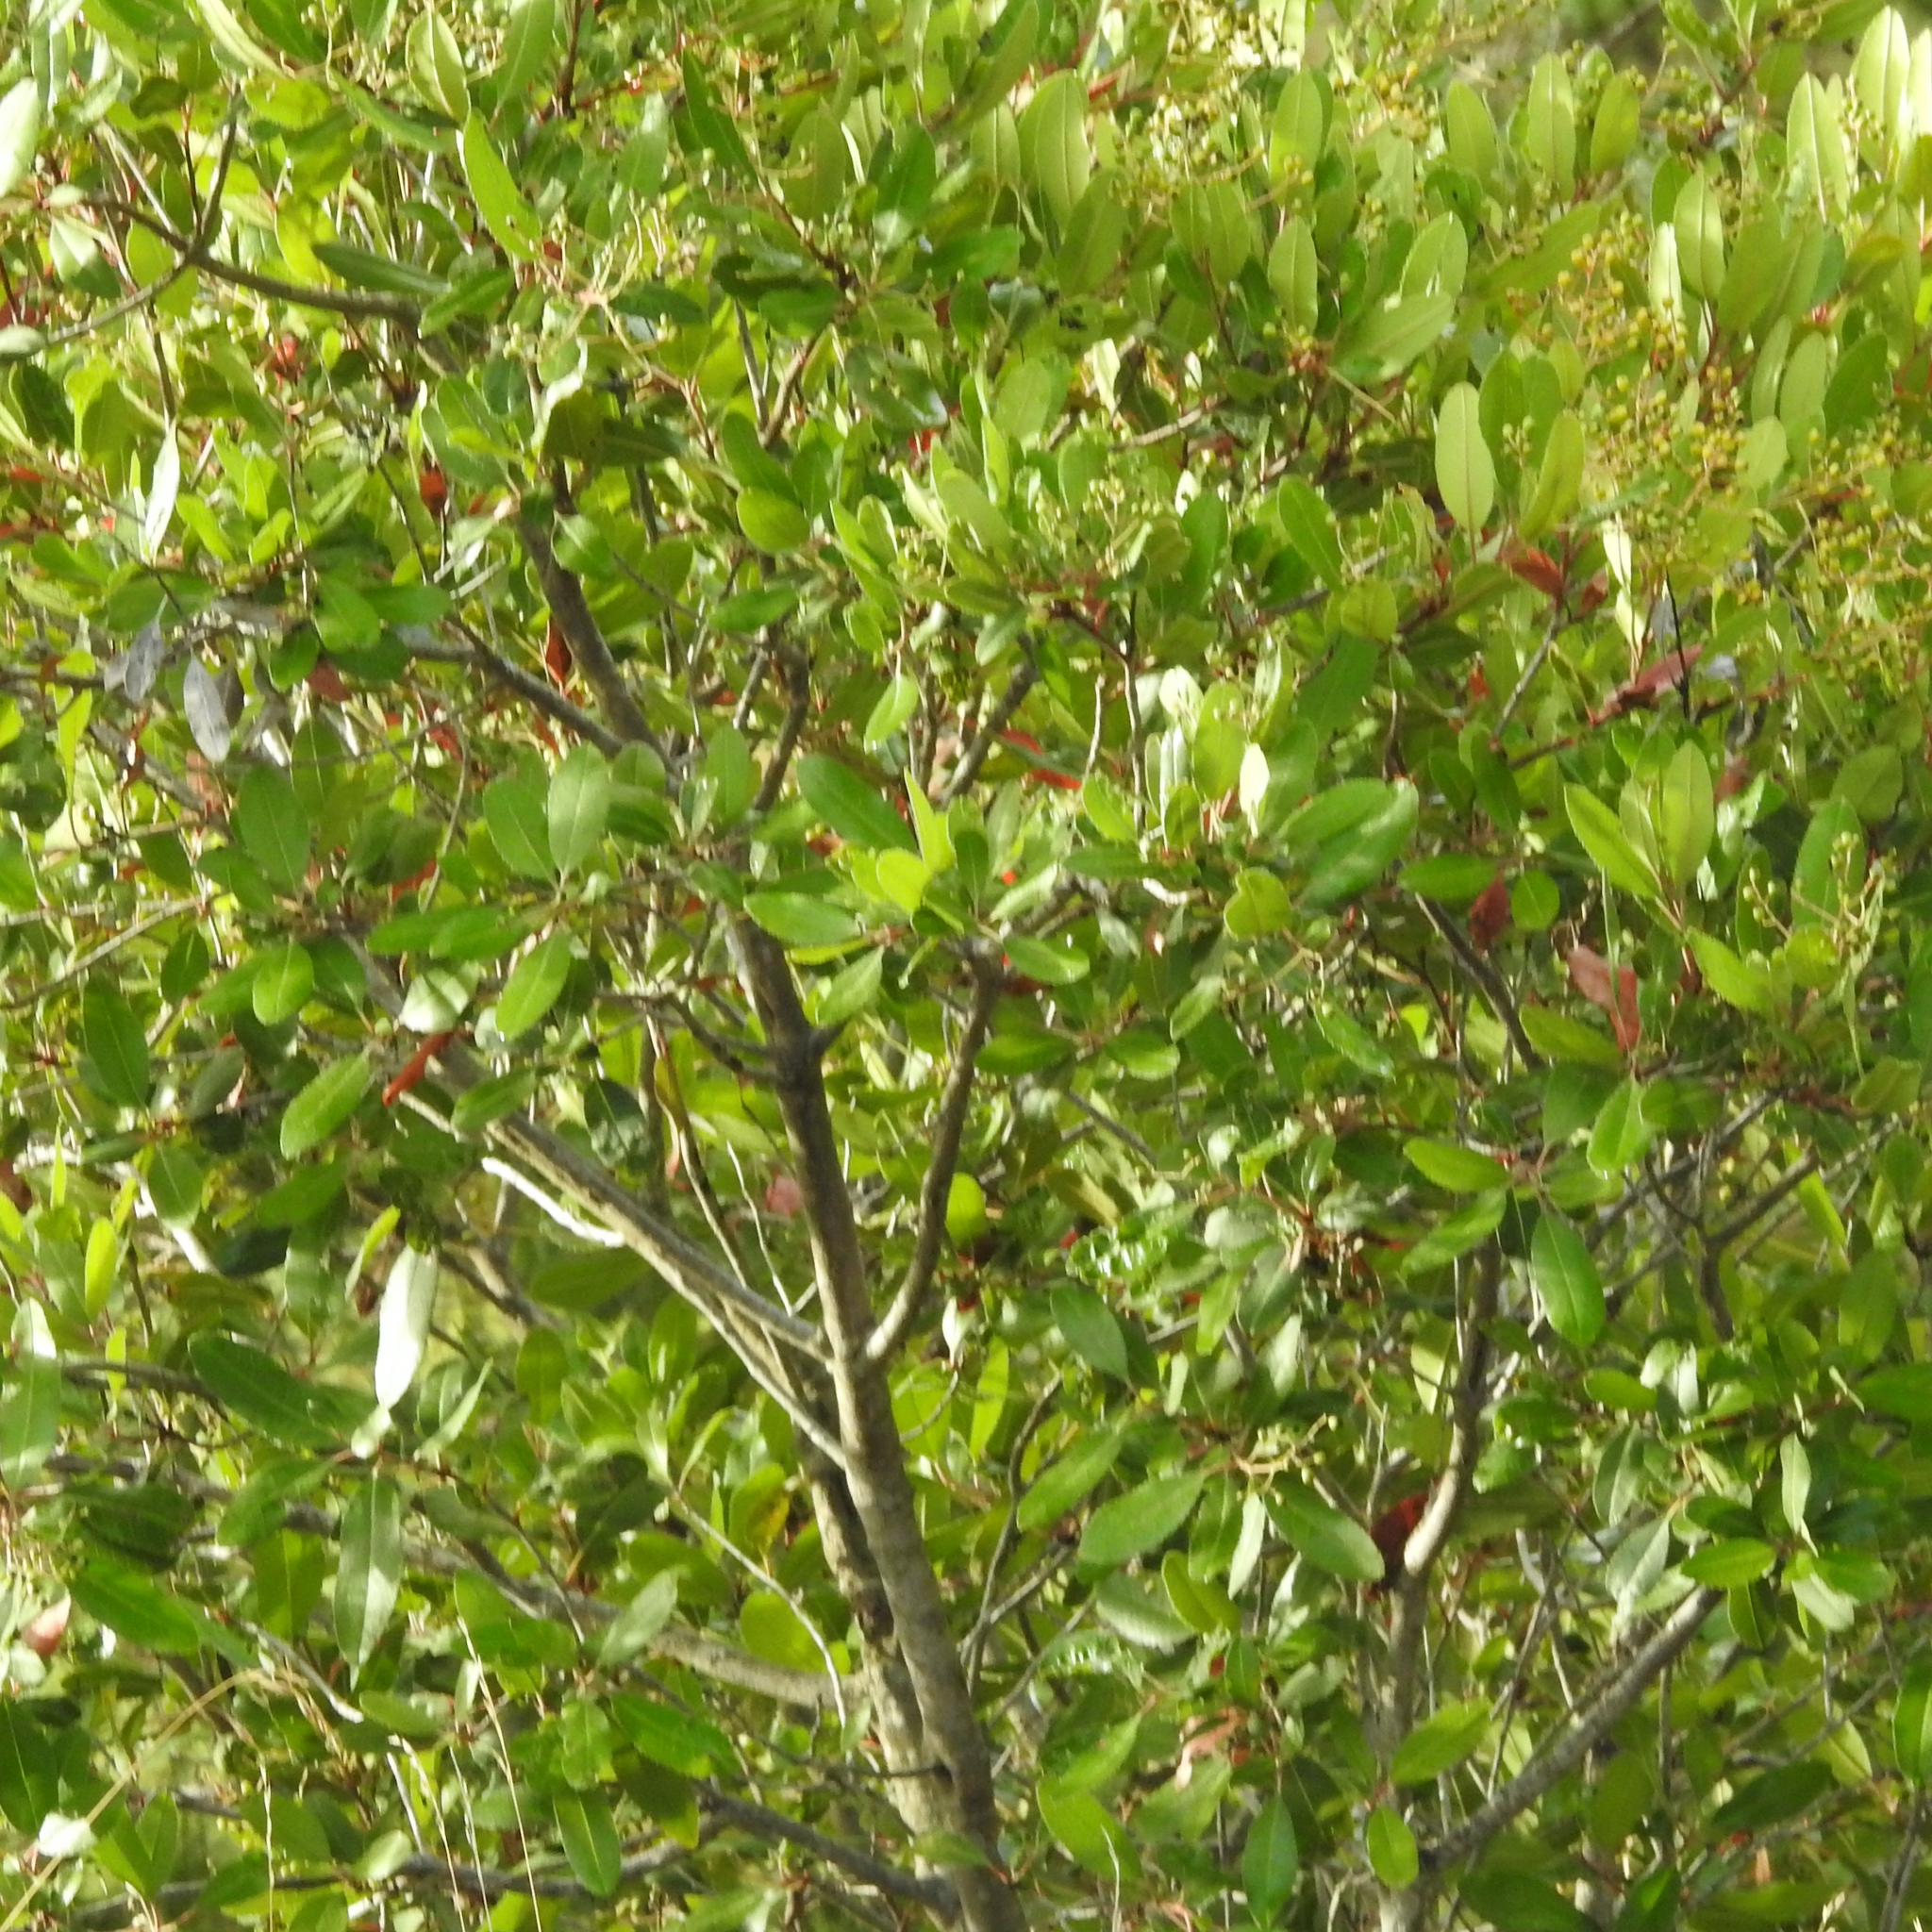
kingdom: Plantae
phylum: Tracheophyta
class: Magnoliopsida
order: Rosales
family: Rosaceae
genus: Heteromeles
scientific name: Heteromeles arbutifolia
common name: California-holly
